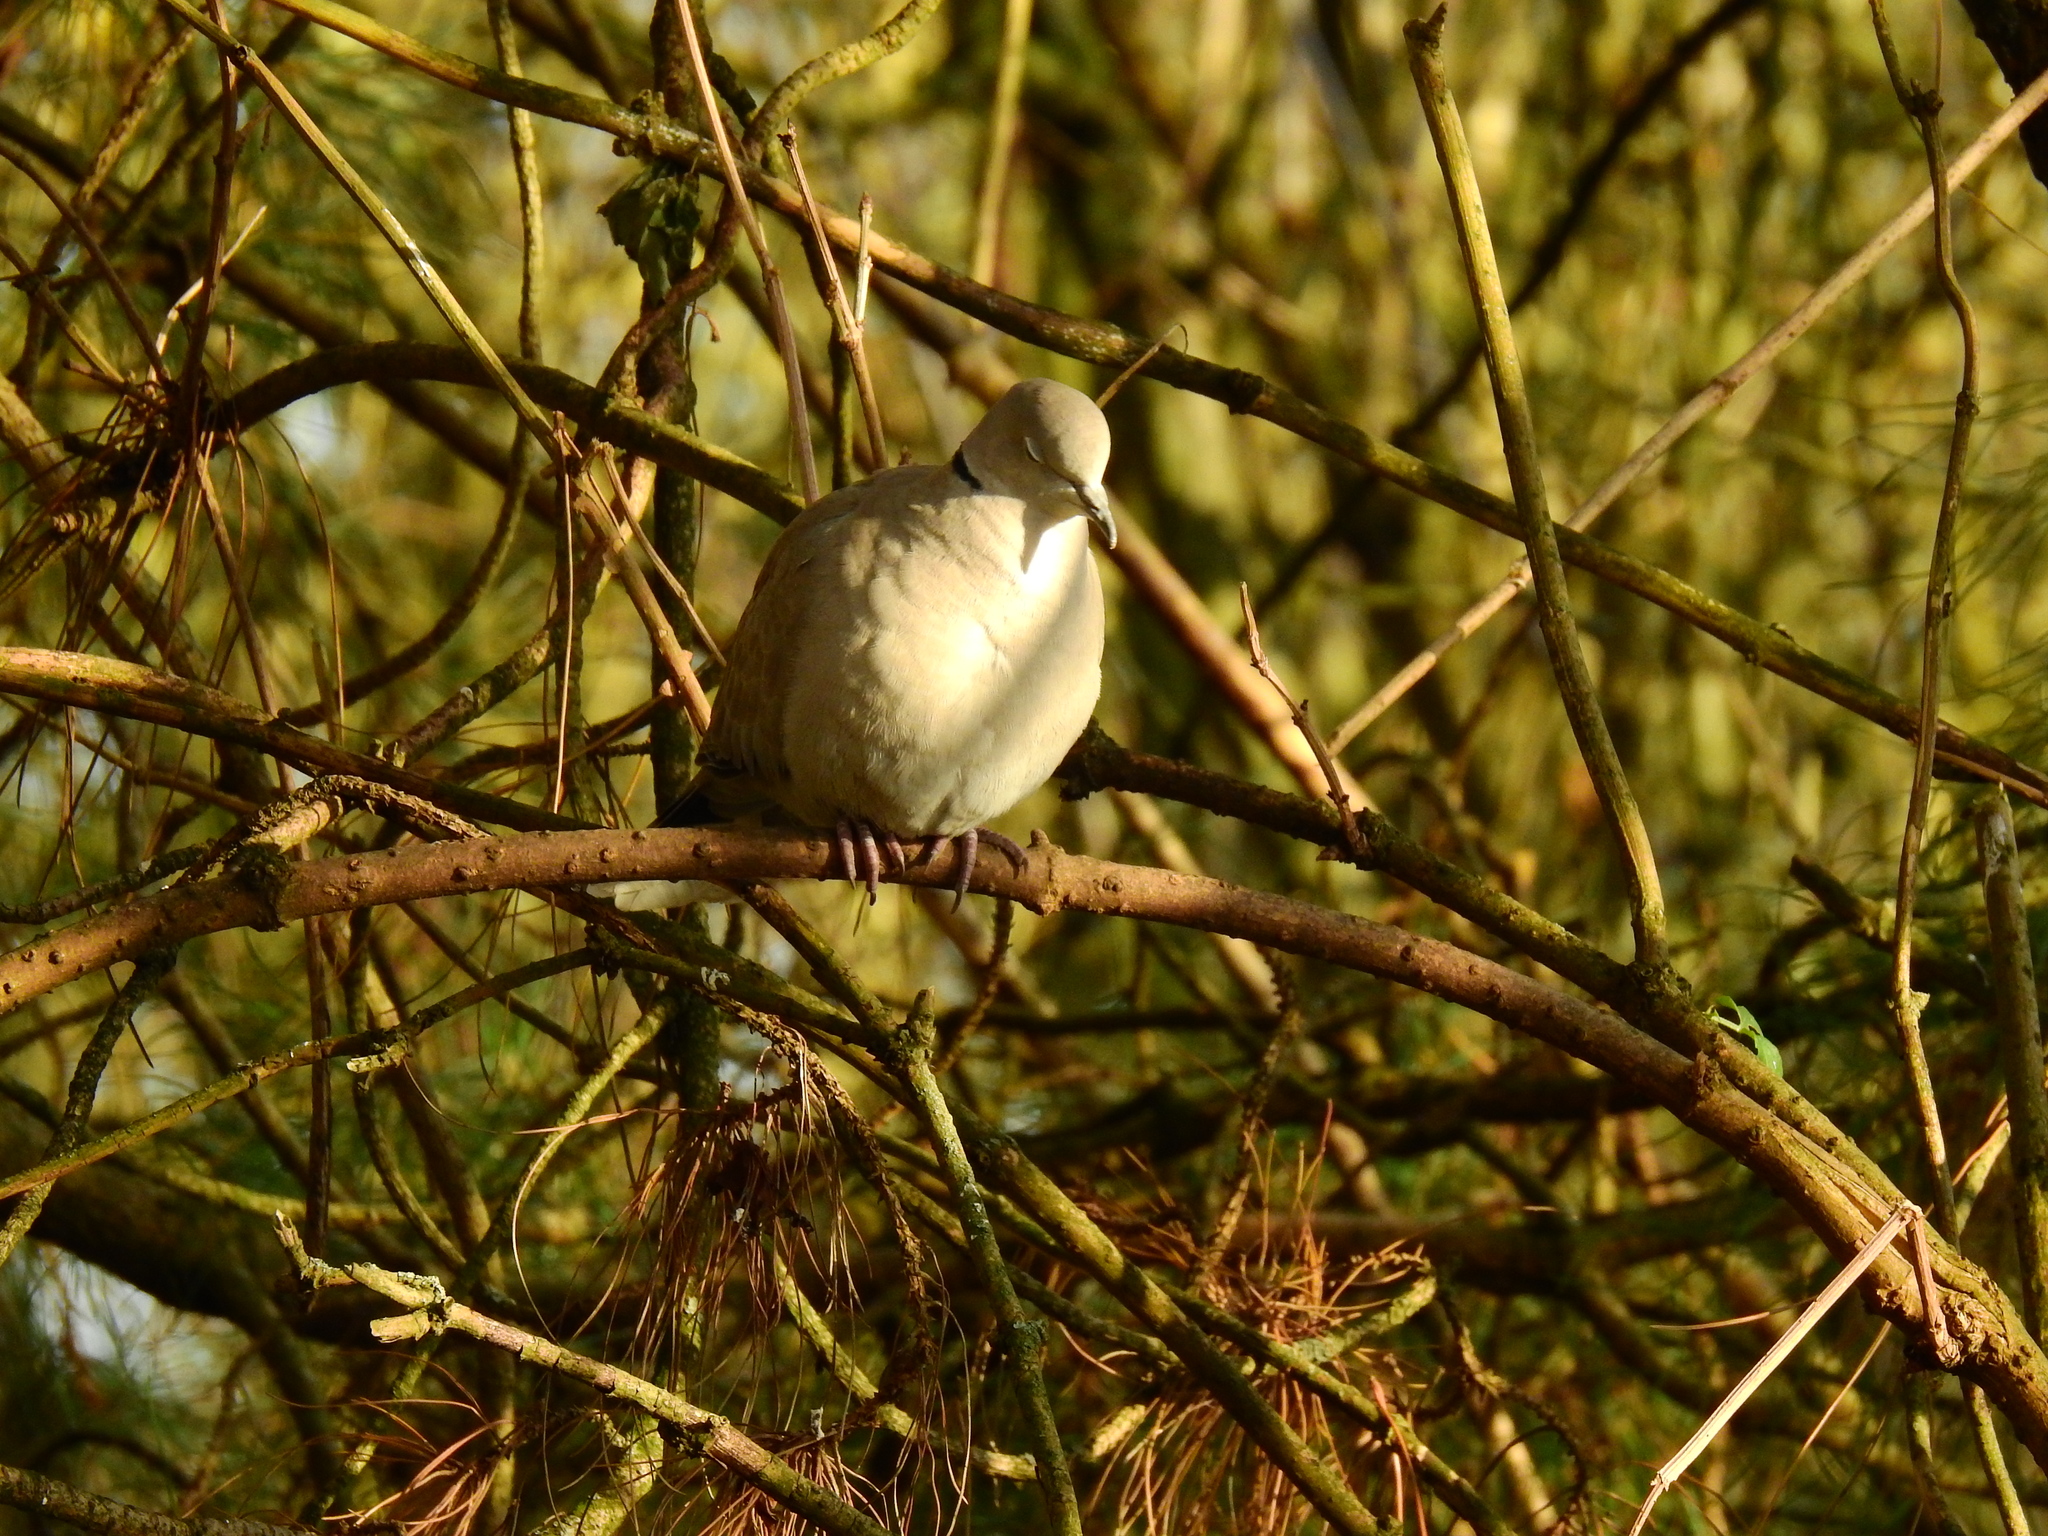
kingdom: Animalia
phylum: Chordata
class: Aves
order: Columbiformes
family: Columbidae
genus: Streptopelia
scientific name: Streptopelia decaocto
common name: Eurasian collared dove
